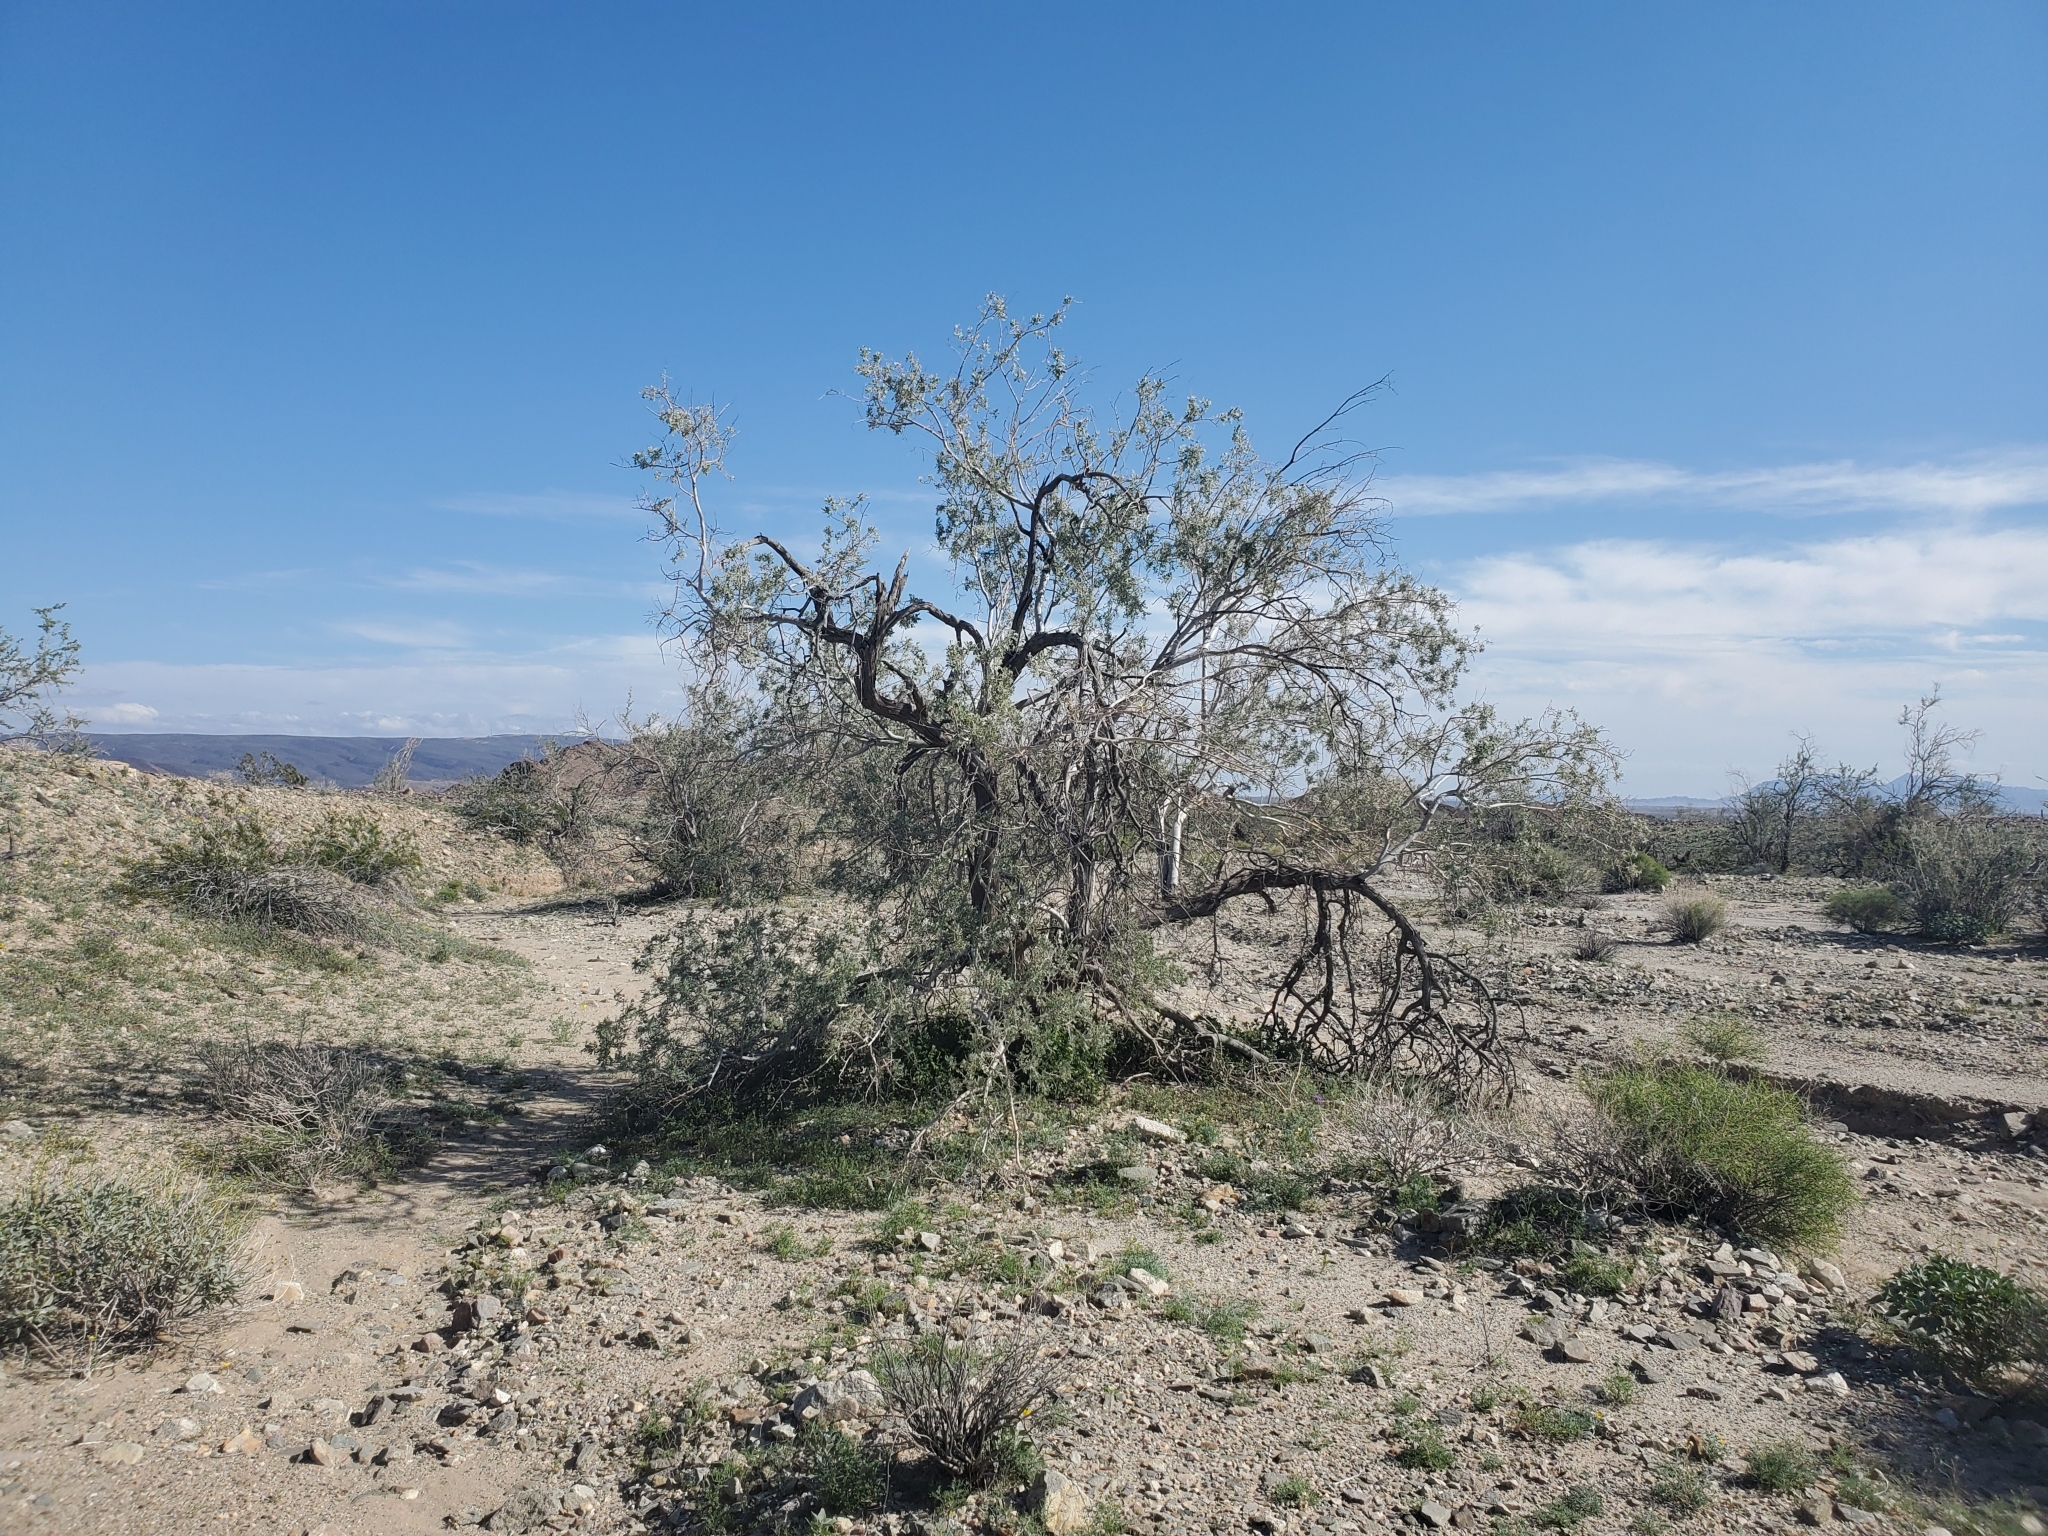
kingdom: Plantae
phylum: Tracheophyta
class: Magnoliopsida
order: Fabales
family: Fabaceae
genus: Olneya
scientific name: Olneya tesota
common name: Desert ironwood
